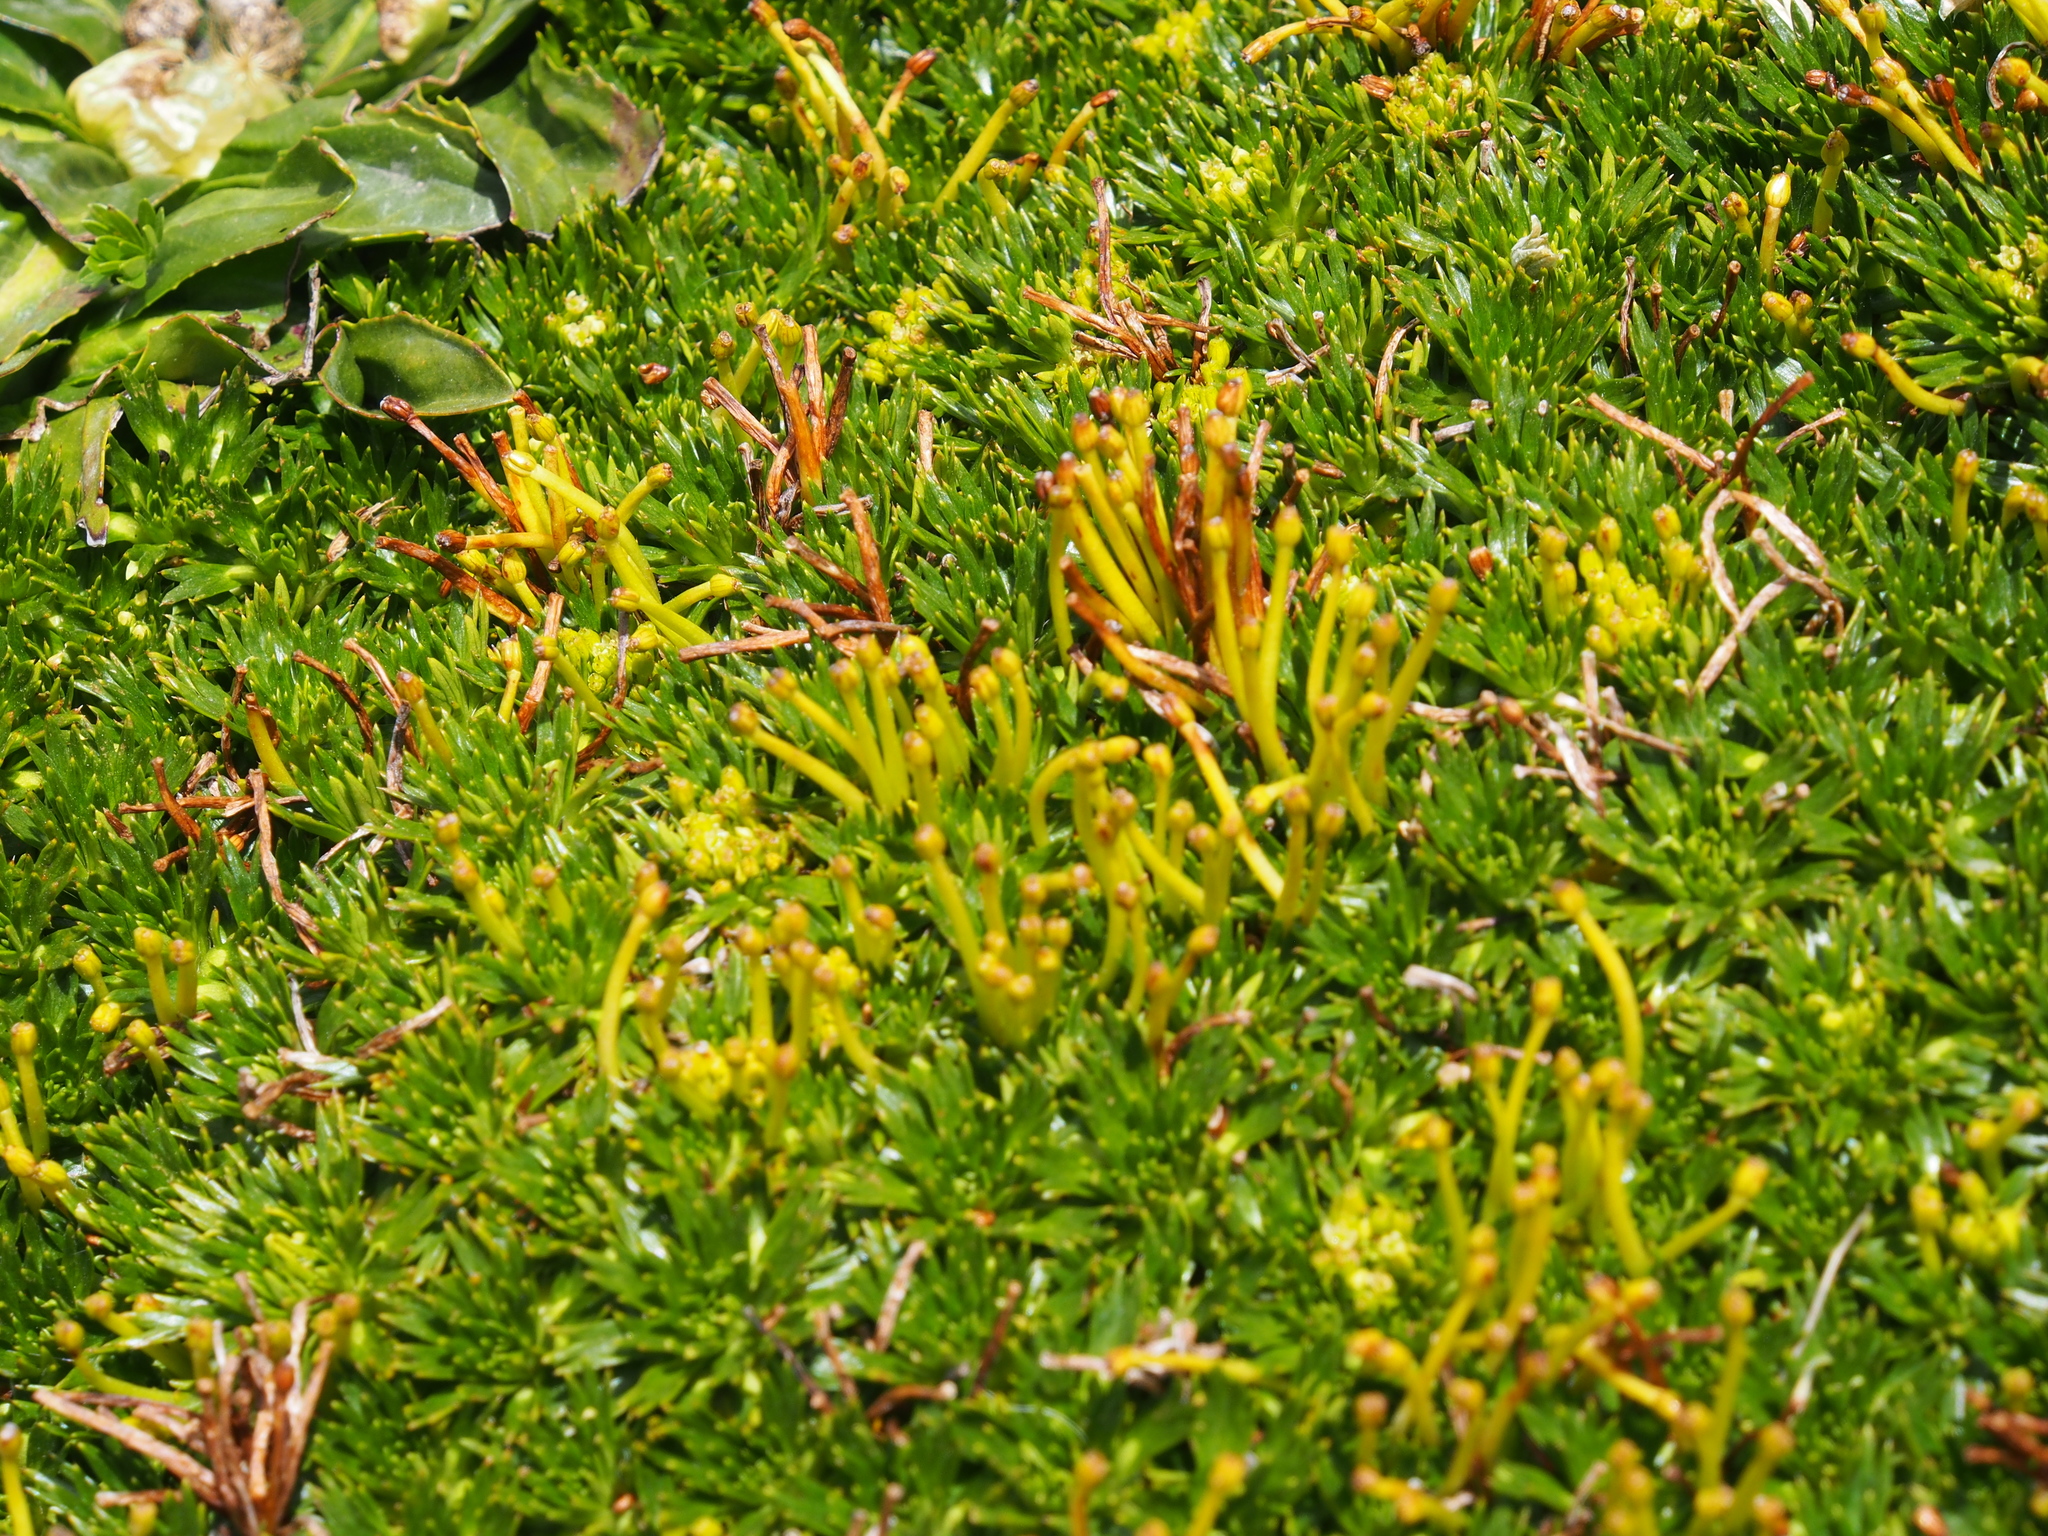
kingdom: Plantae
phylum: Tracheophyta
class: Magnoliopsida
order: Apiales
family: Apiaceae
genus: Azorella
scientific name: Azorella pedunculata
